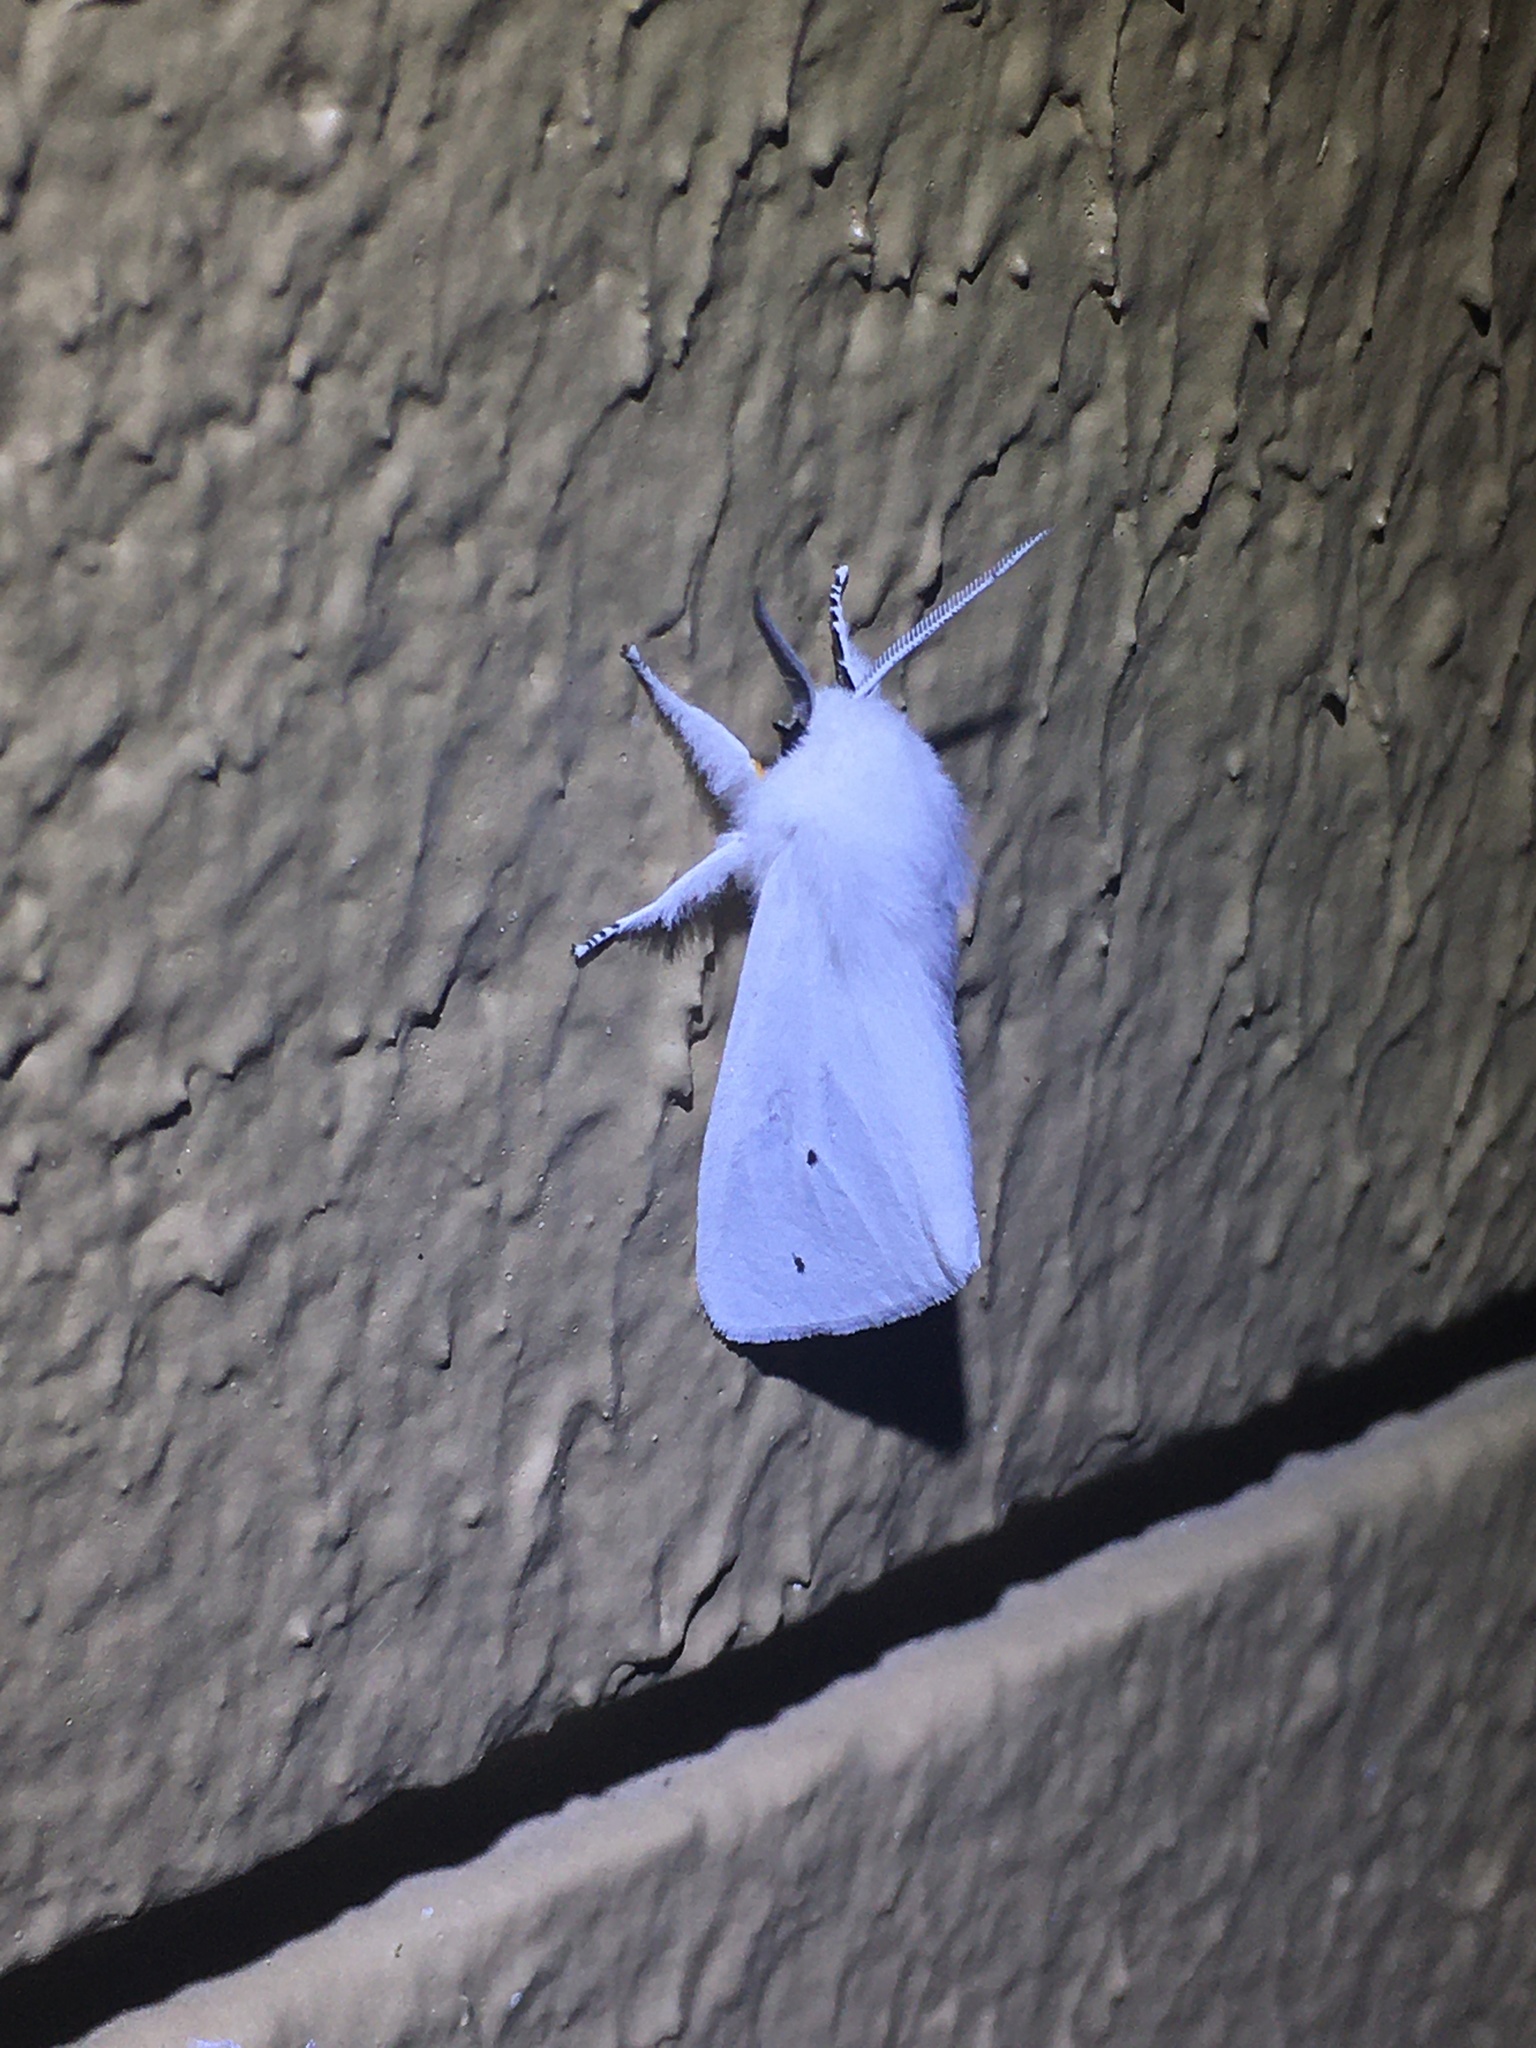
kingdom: Animalia
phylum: Arthropoda
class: Insecta
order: Lepidoptera
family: Erebidae
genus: Spilosoma
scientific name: Spilosoma virginica
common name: Virginia tiger moth
